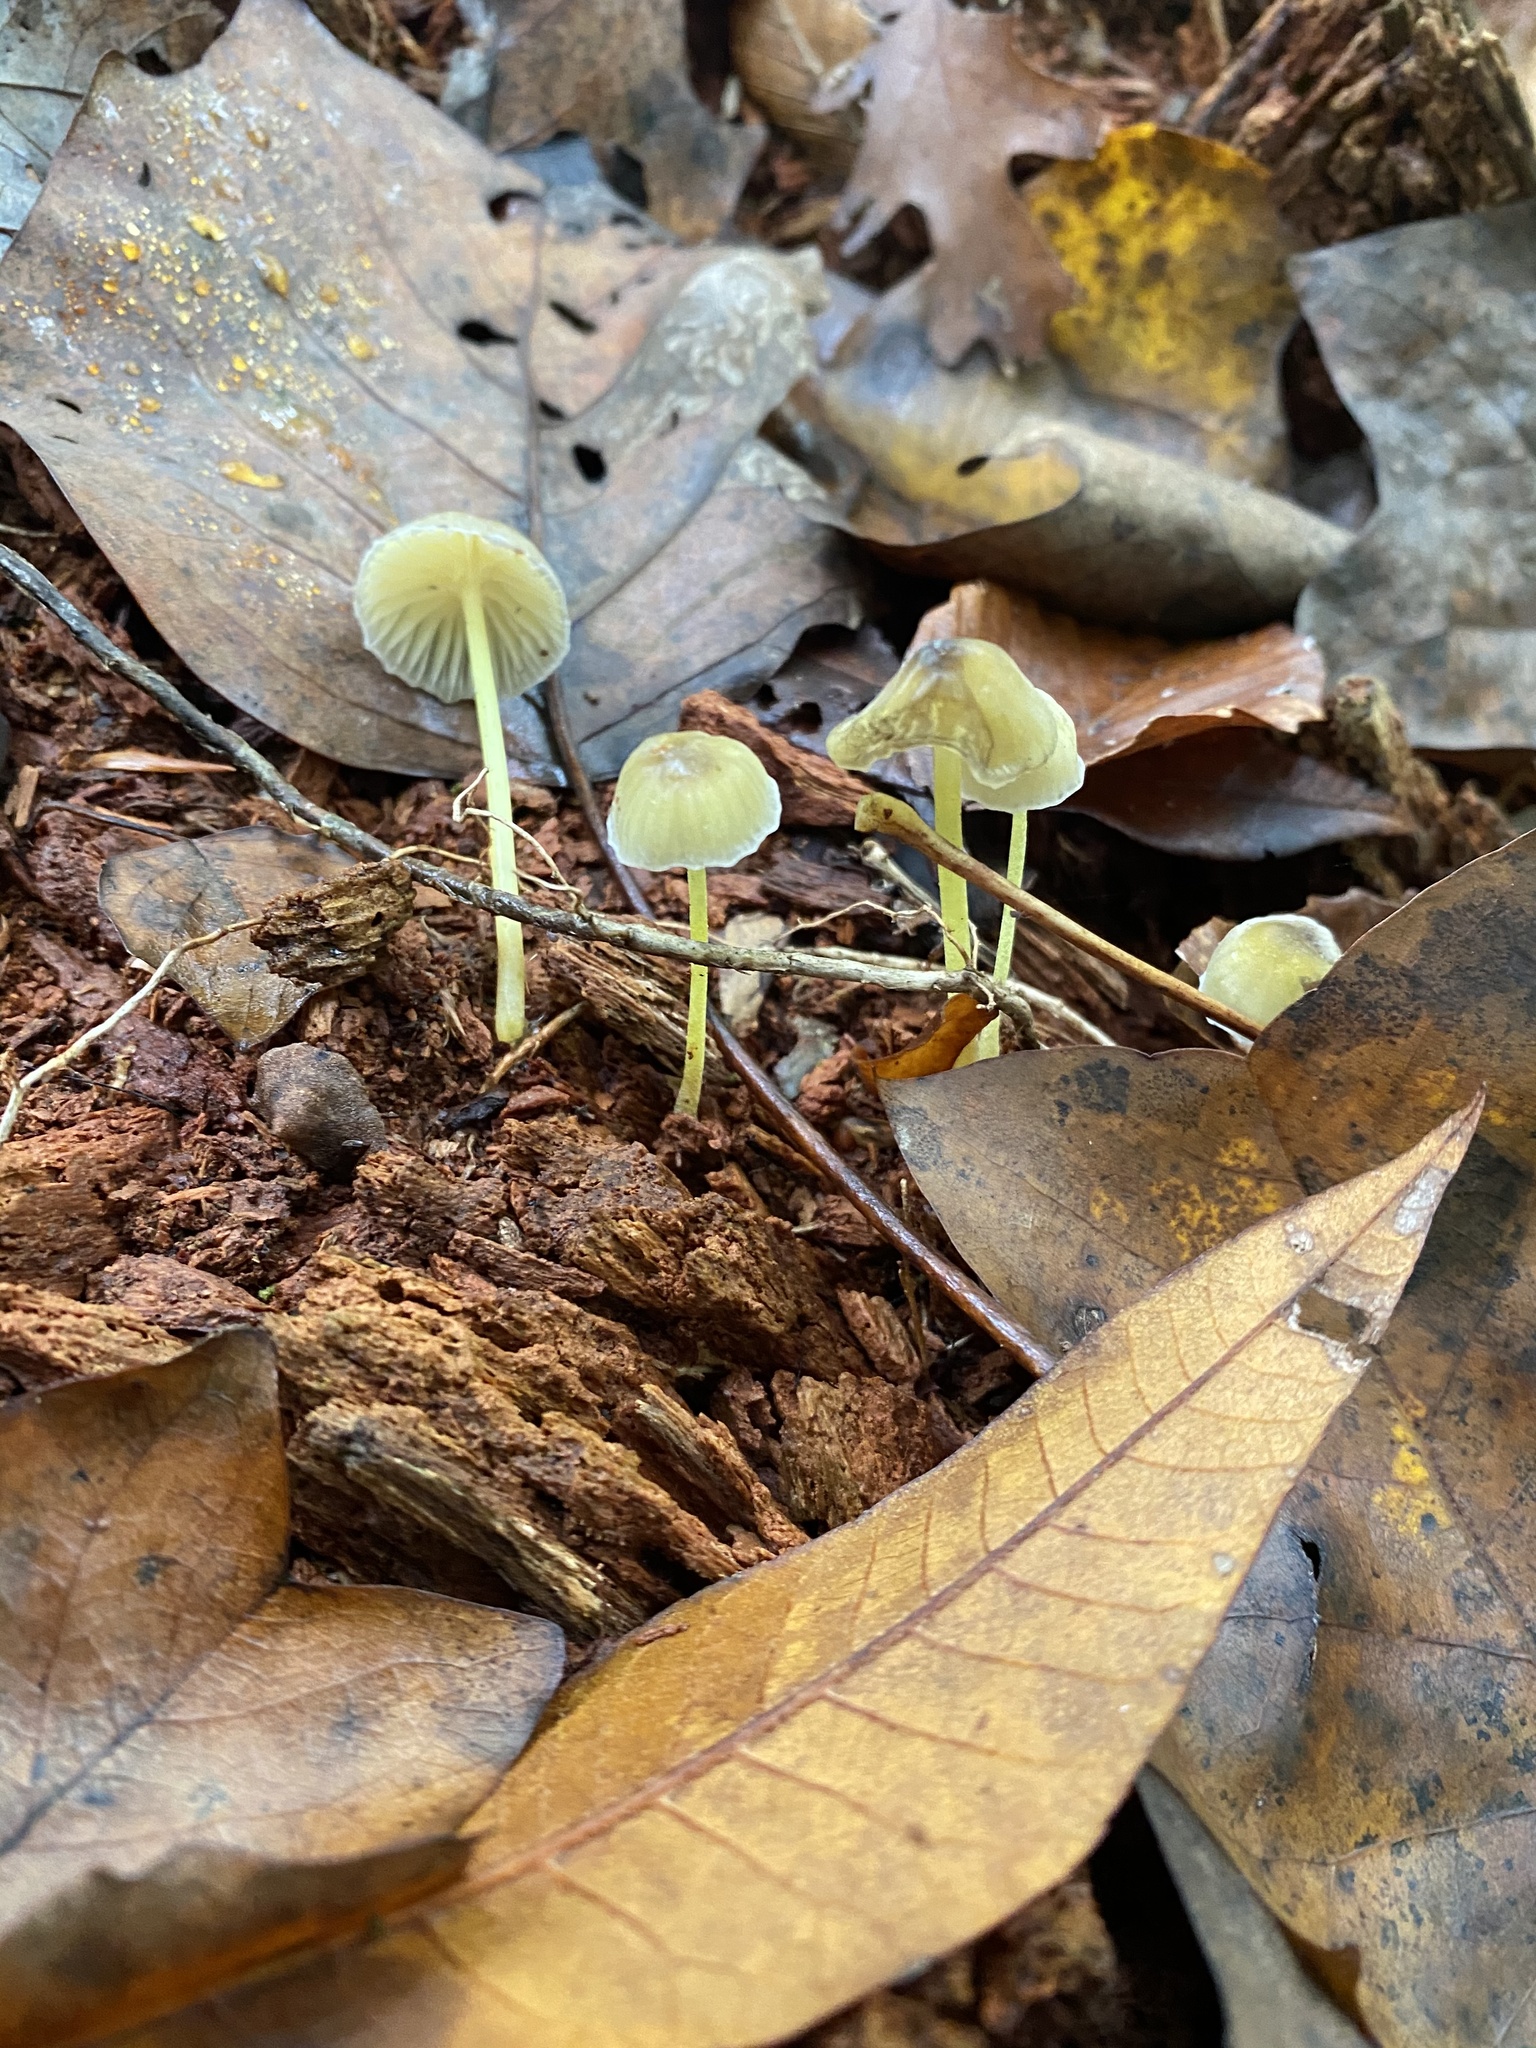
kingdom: Fungi
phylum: Basidiomycota
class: Agaricomycetes
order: Agaricales
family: Mycenaceae
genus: Mycena
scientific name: Mycena epipterygia
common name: Yellowleg bonnet
